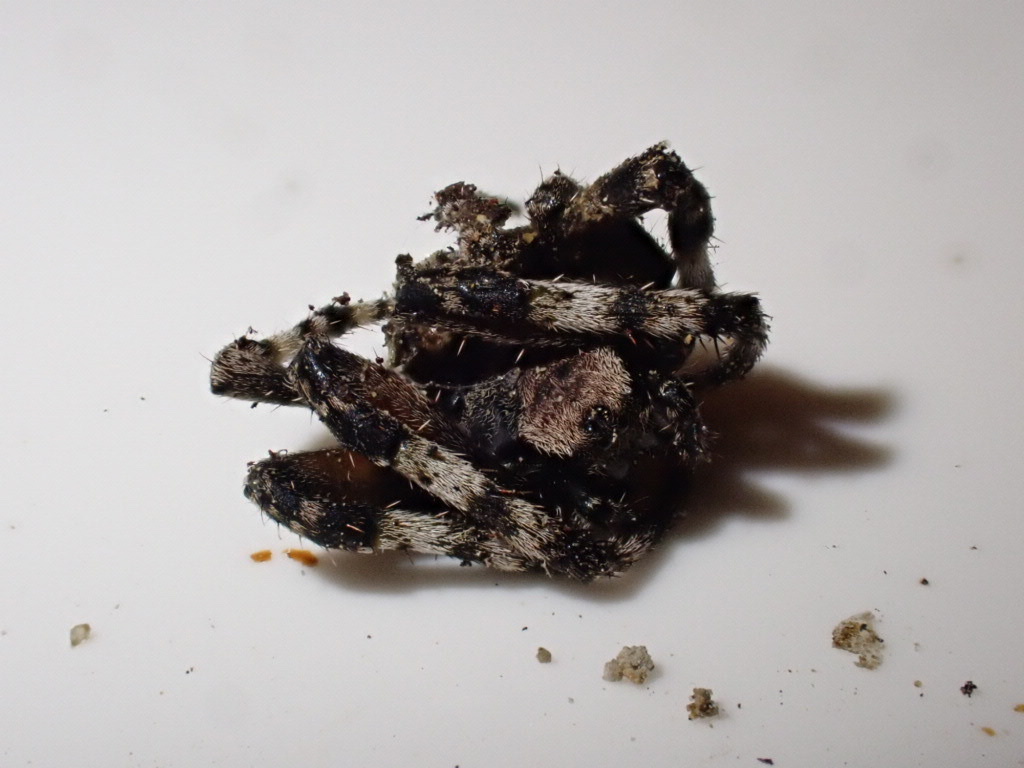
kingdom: Animalia
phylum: Arthropoda
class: Arachnida
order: Araneae
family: Araneidae
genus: Courtaraneus
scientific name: Courtaraneus orientalis
